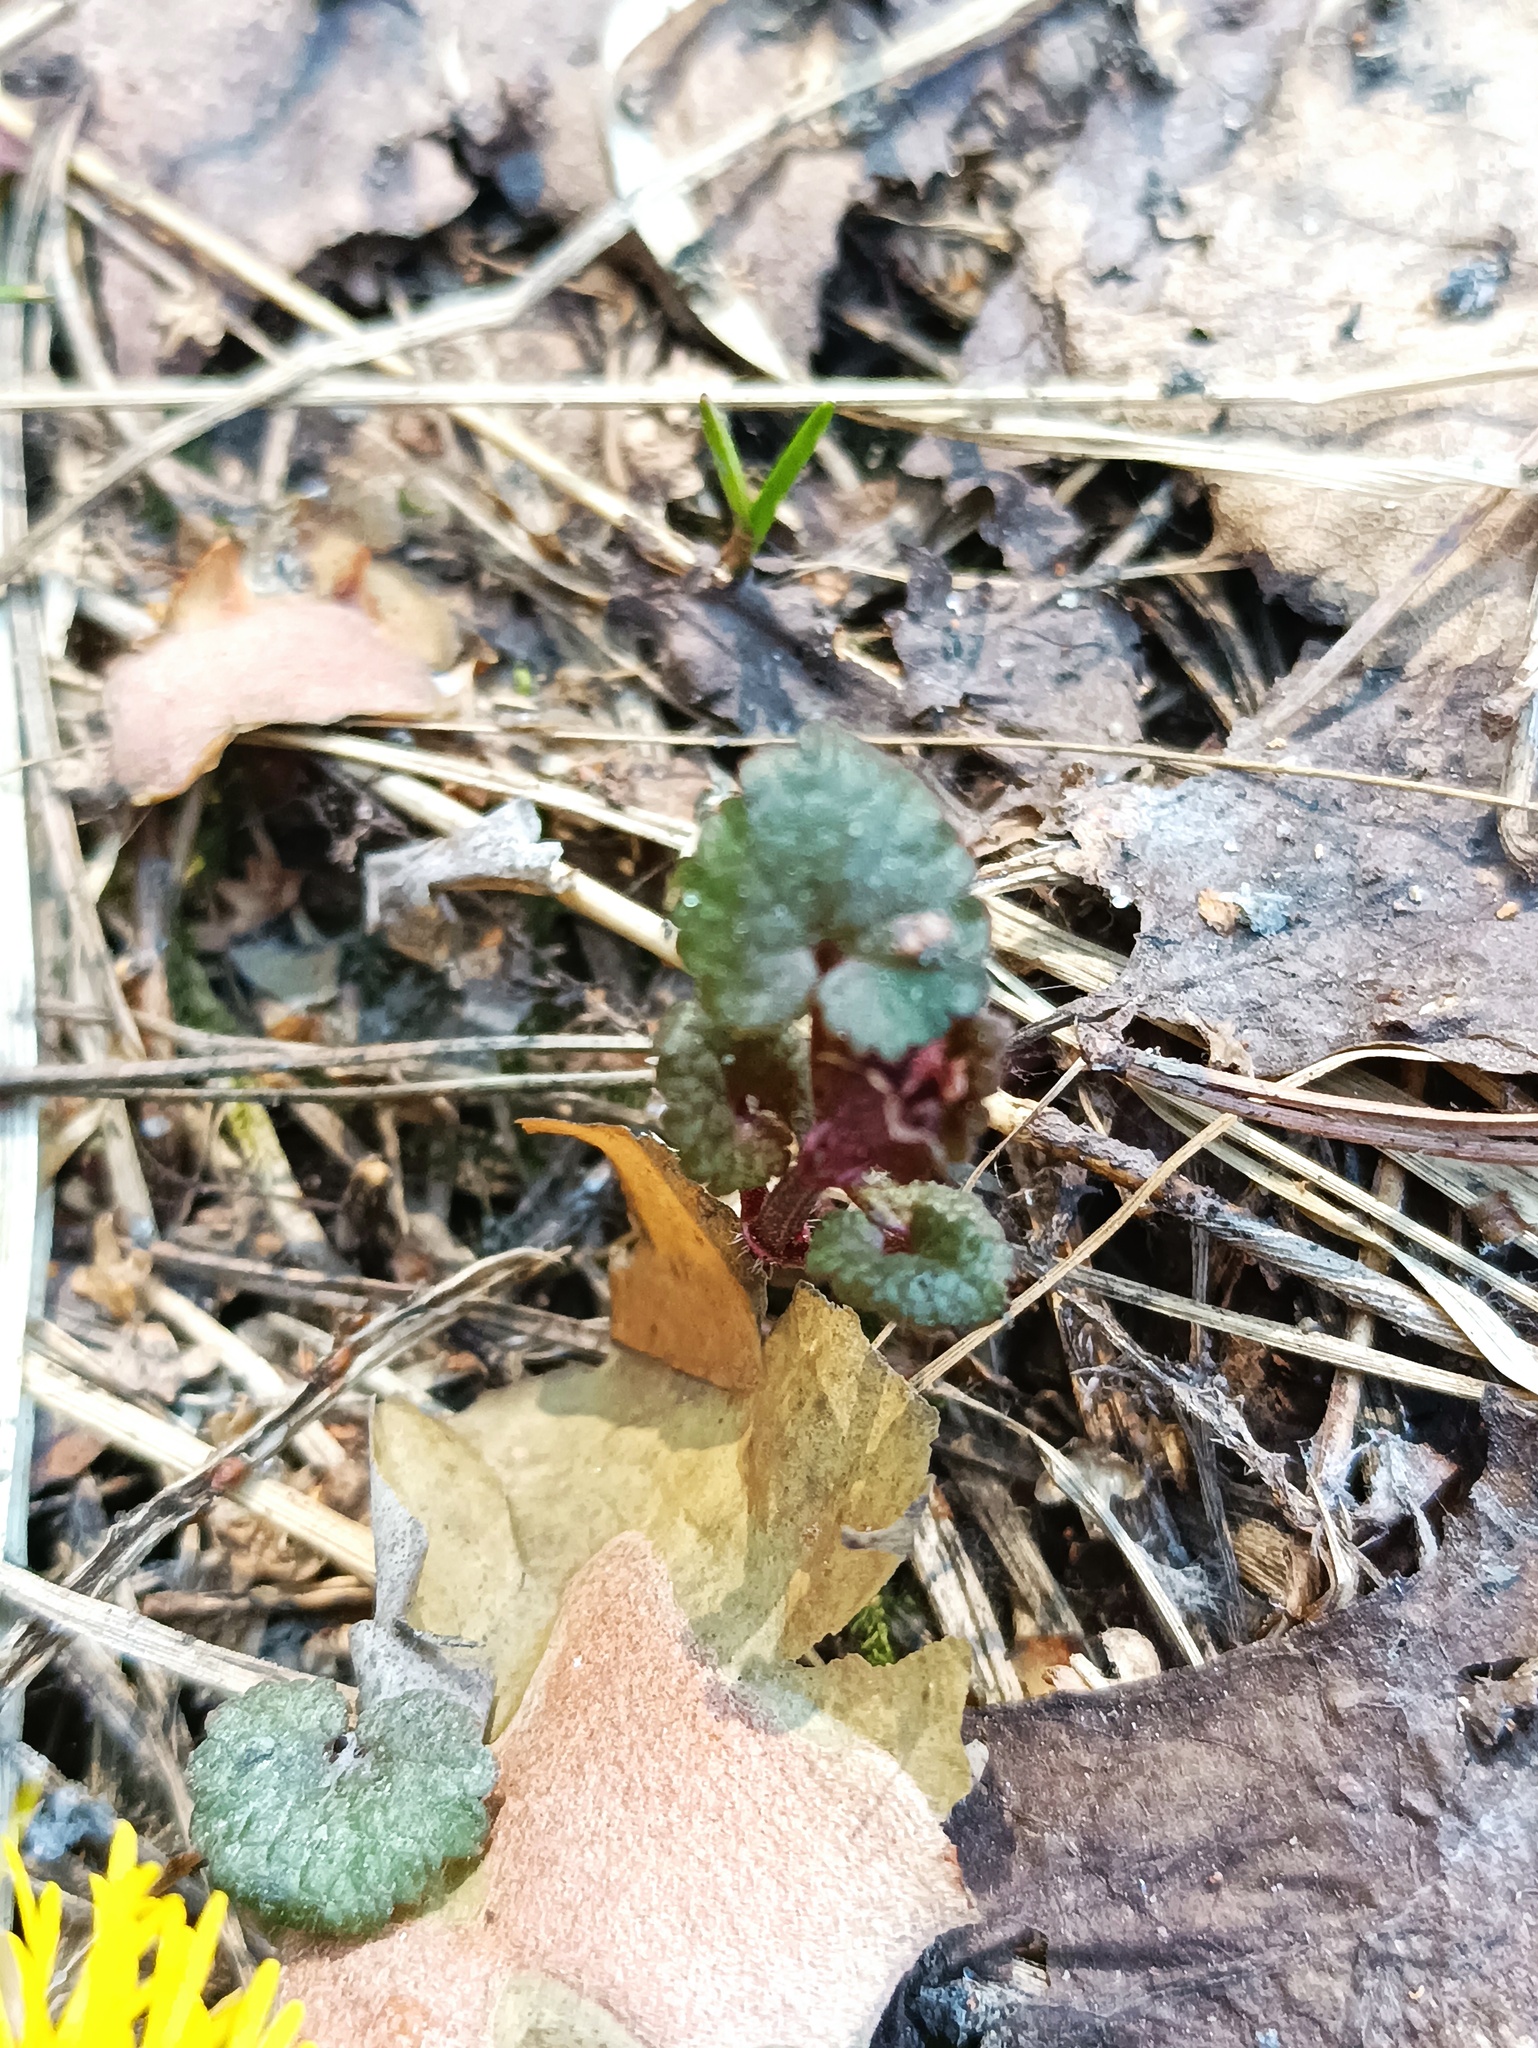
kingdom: Plantae
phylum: Tracheophyta
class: Magnoliopsida
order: Lamiales
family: Lamiaceae
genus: Glechoma
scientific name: Glechoma hederacea
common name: Ground ivy
